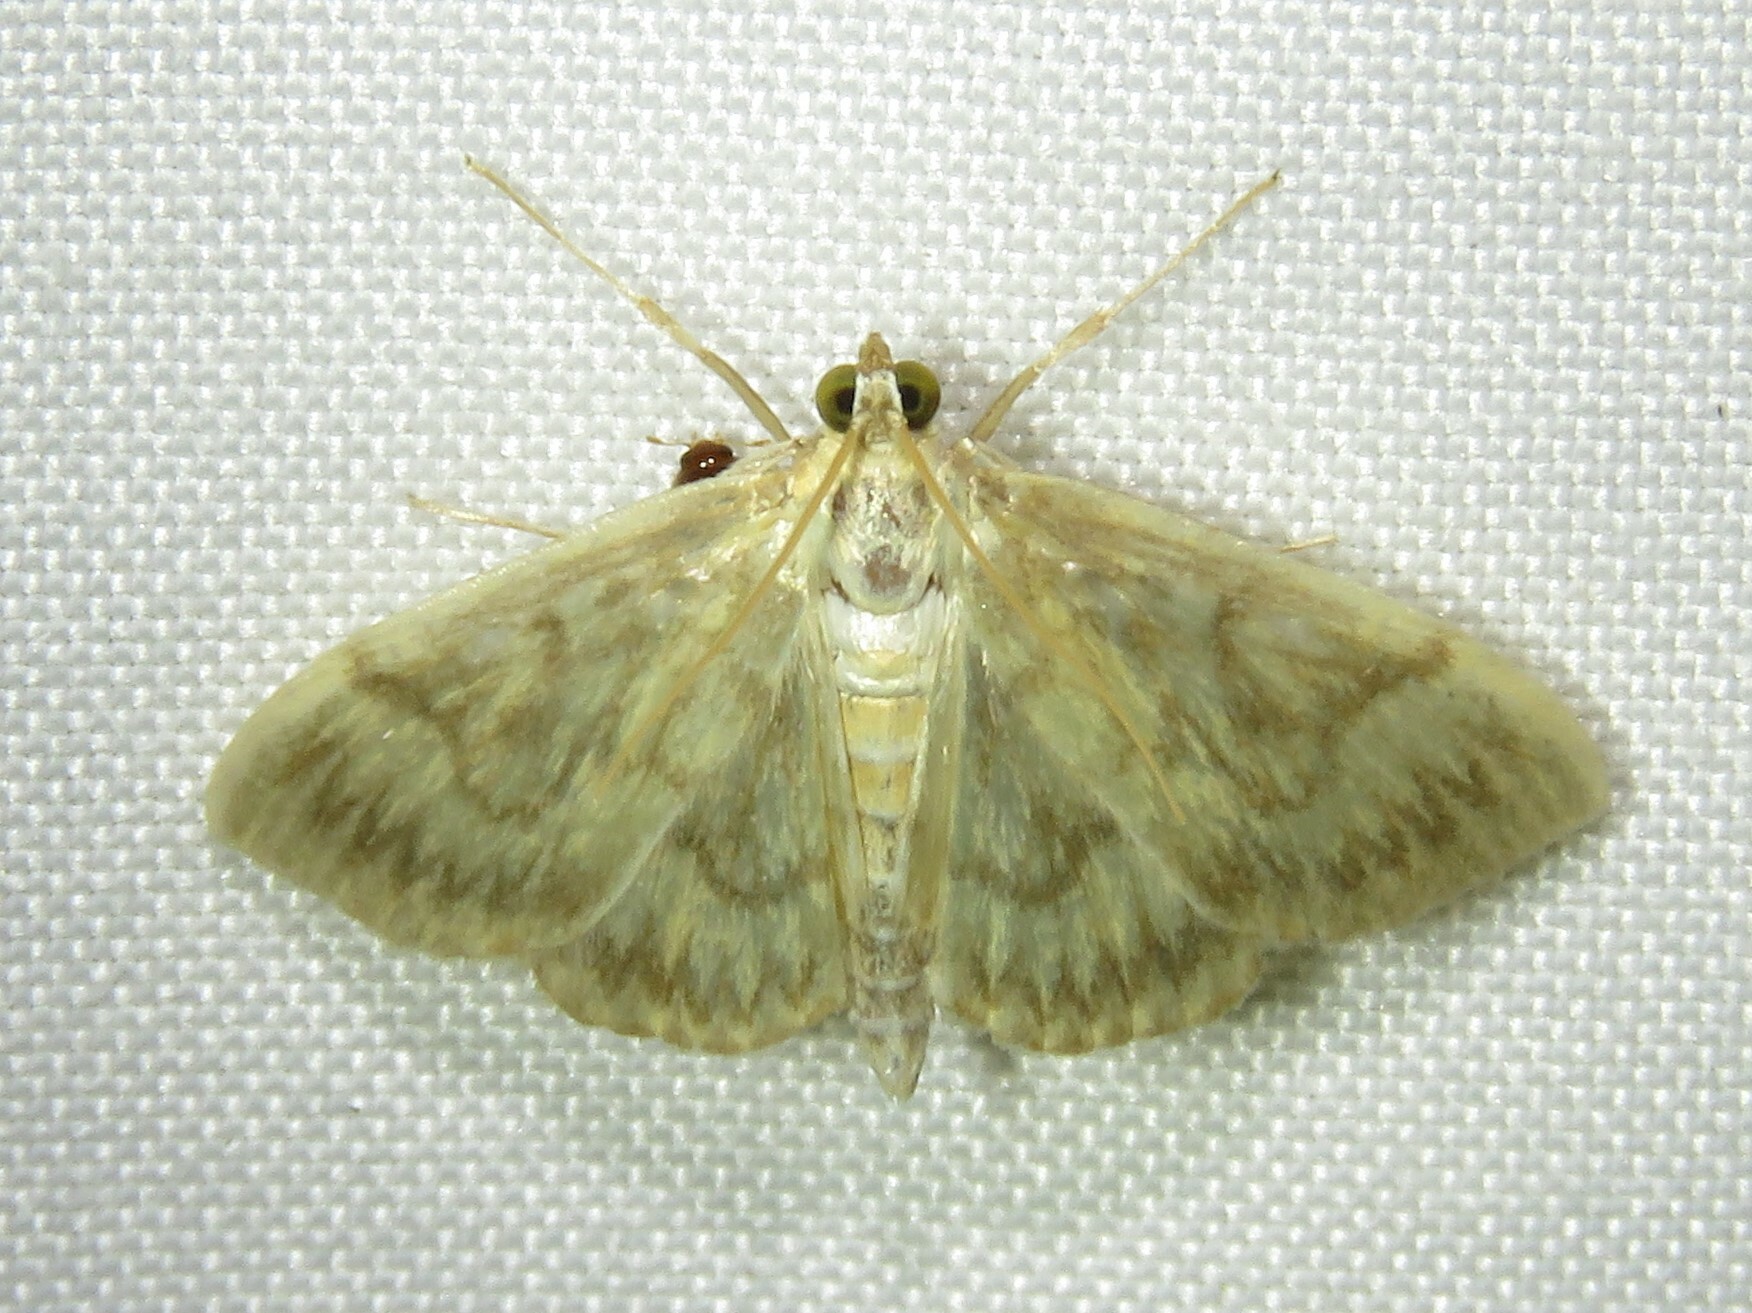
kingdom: Animalia
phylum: Arthropoda
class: Insecta
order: Lepidoptera
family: Crambidae
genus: Crocidophora
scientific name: Crocidophora serratissimalis
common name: Saw-toothed crocidophora moth
